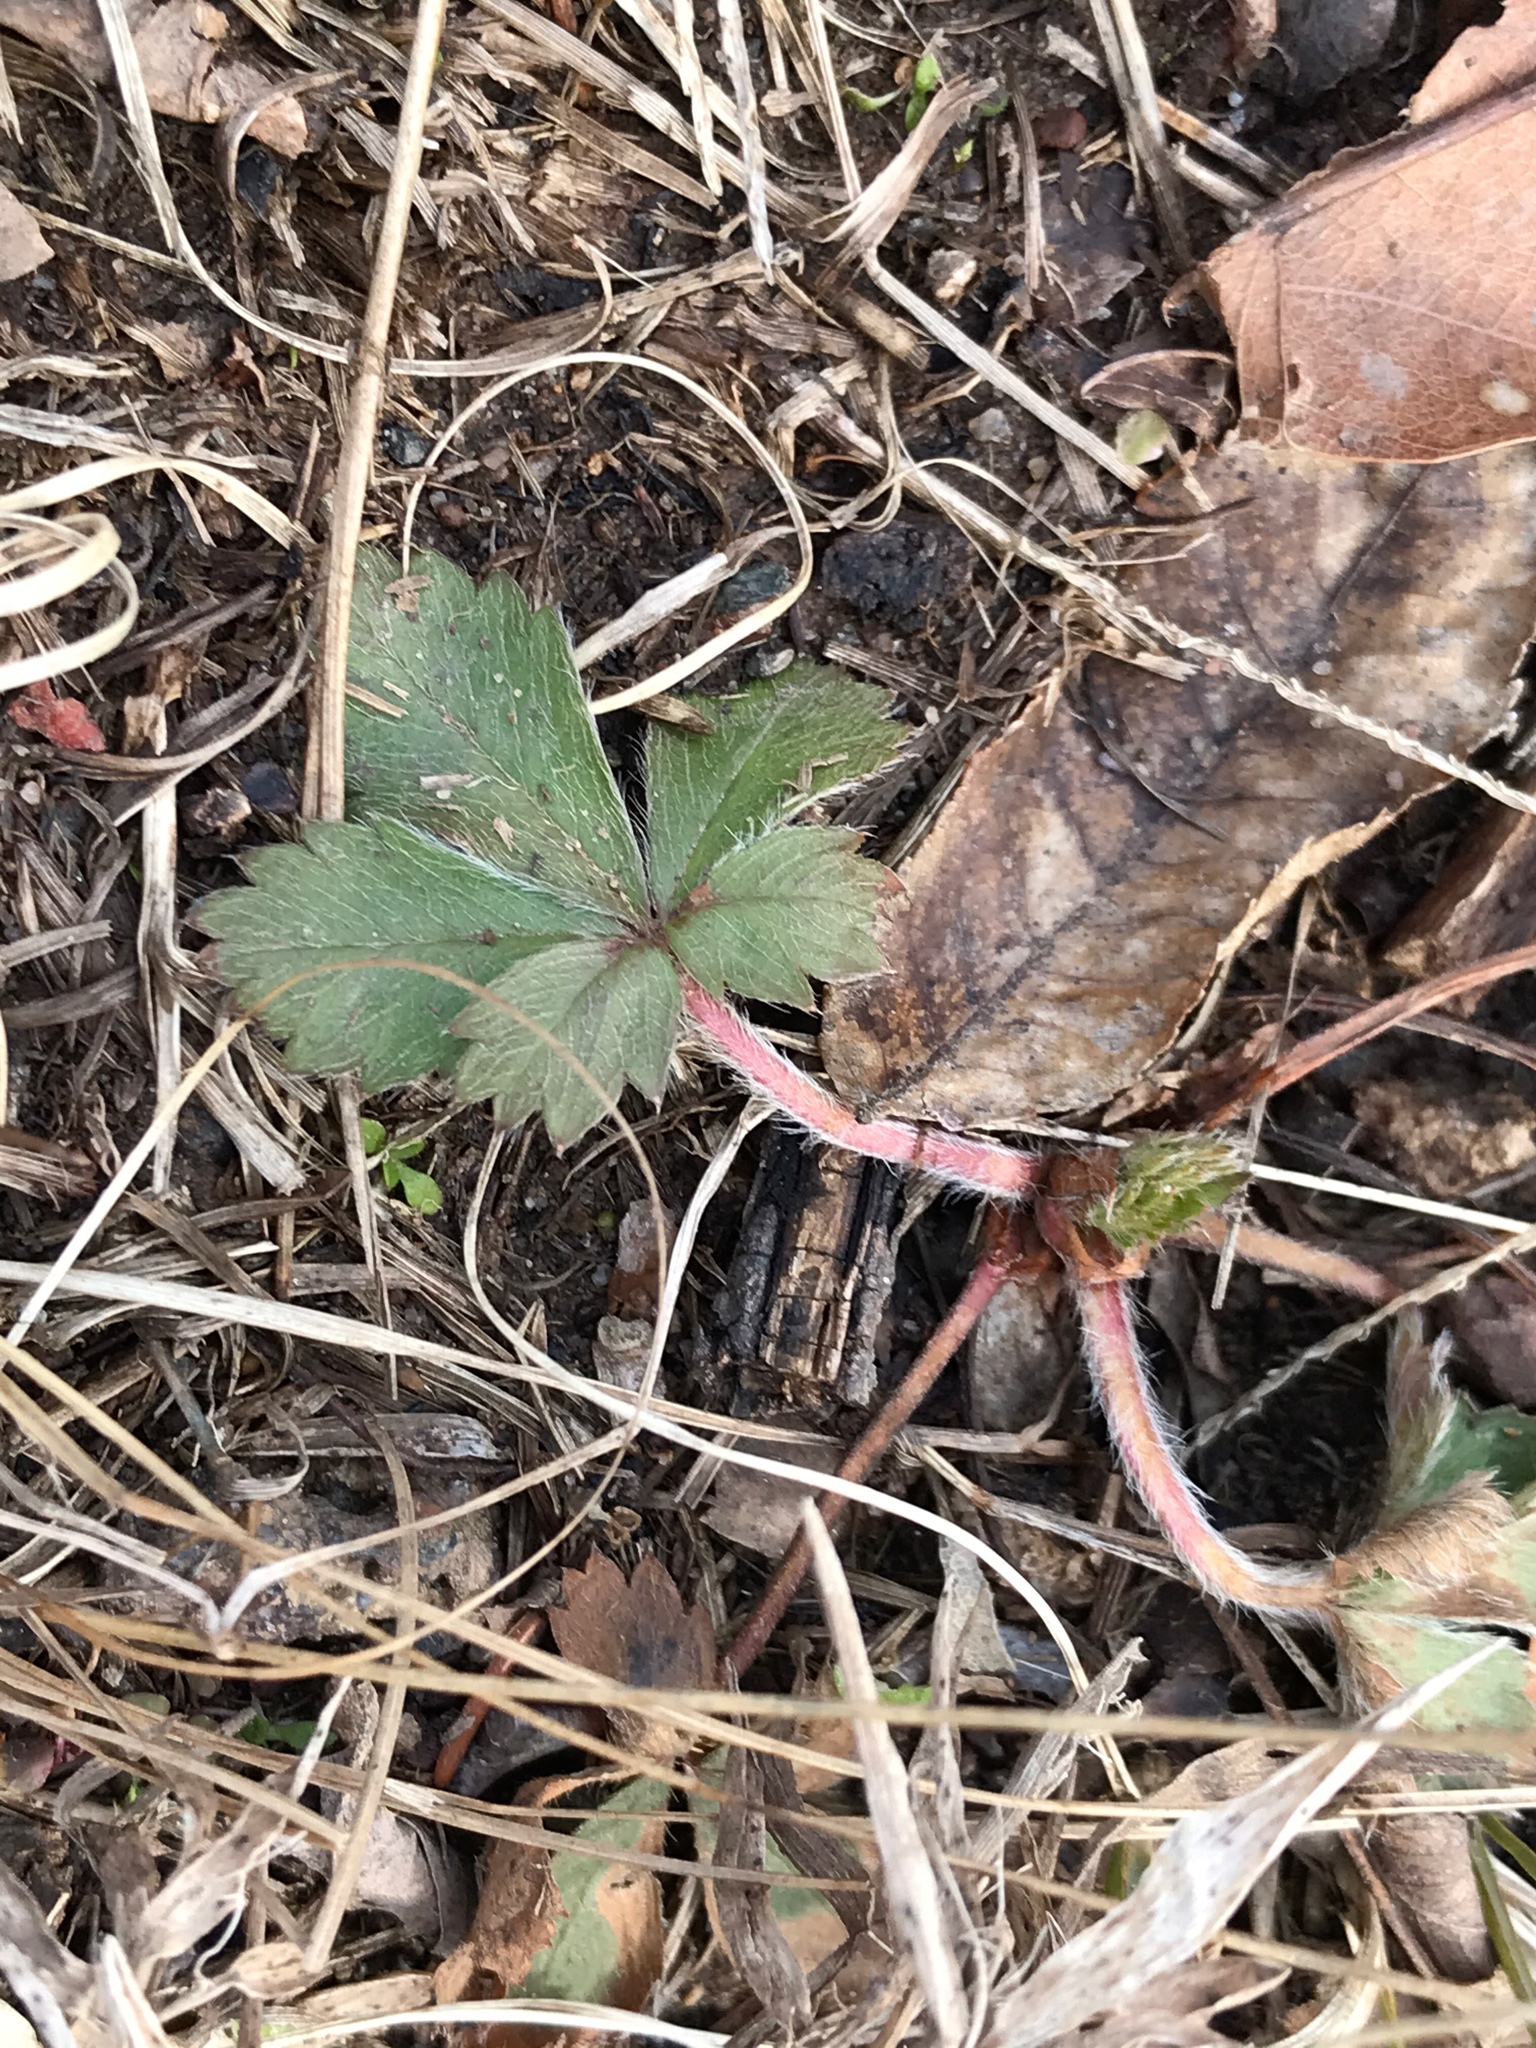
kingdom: Plantae
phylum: Tracheophyta
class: Magnoliopsida
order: Rosales
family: Rosaceae
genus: Potentilla
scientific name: Potentilla canadensis
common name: Canada cinquefoil
